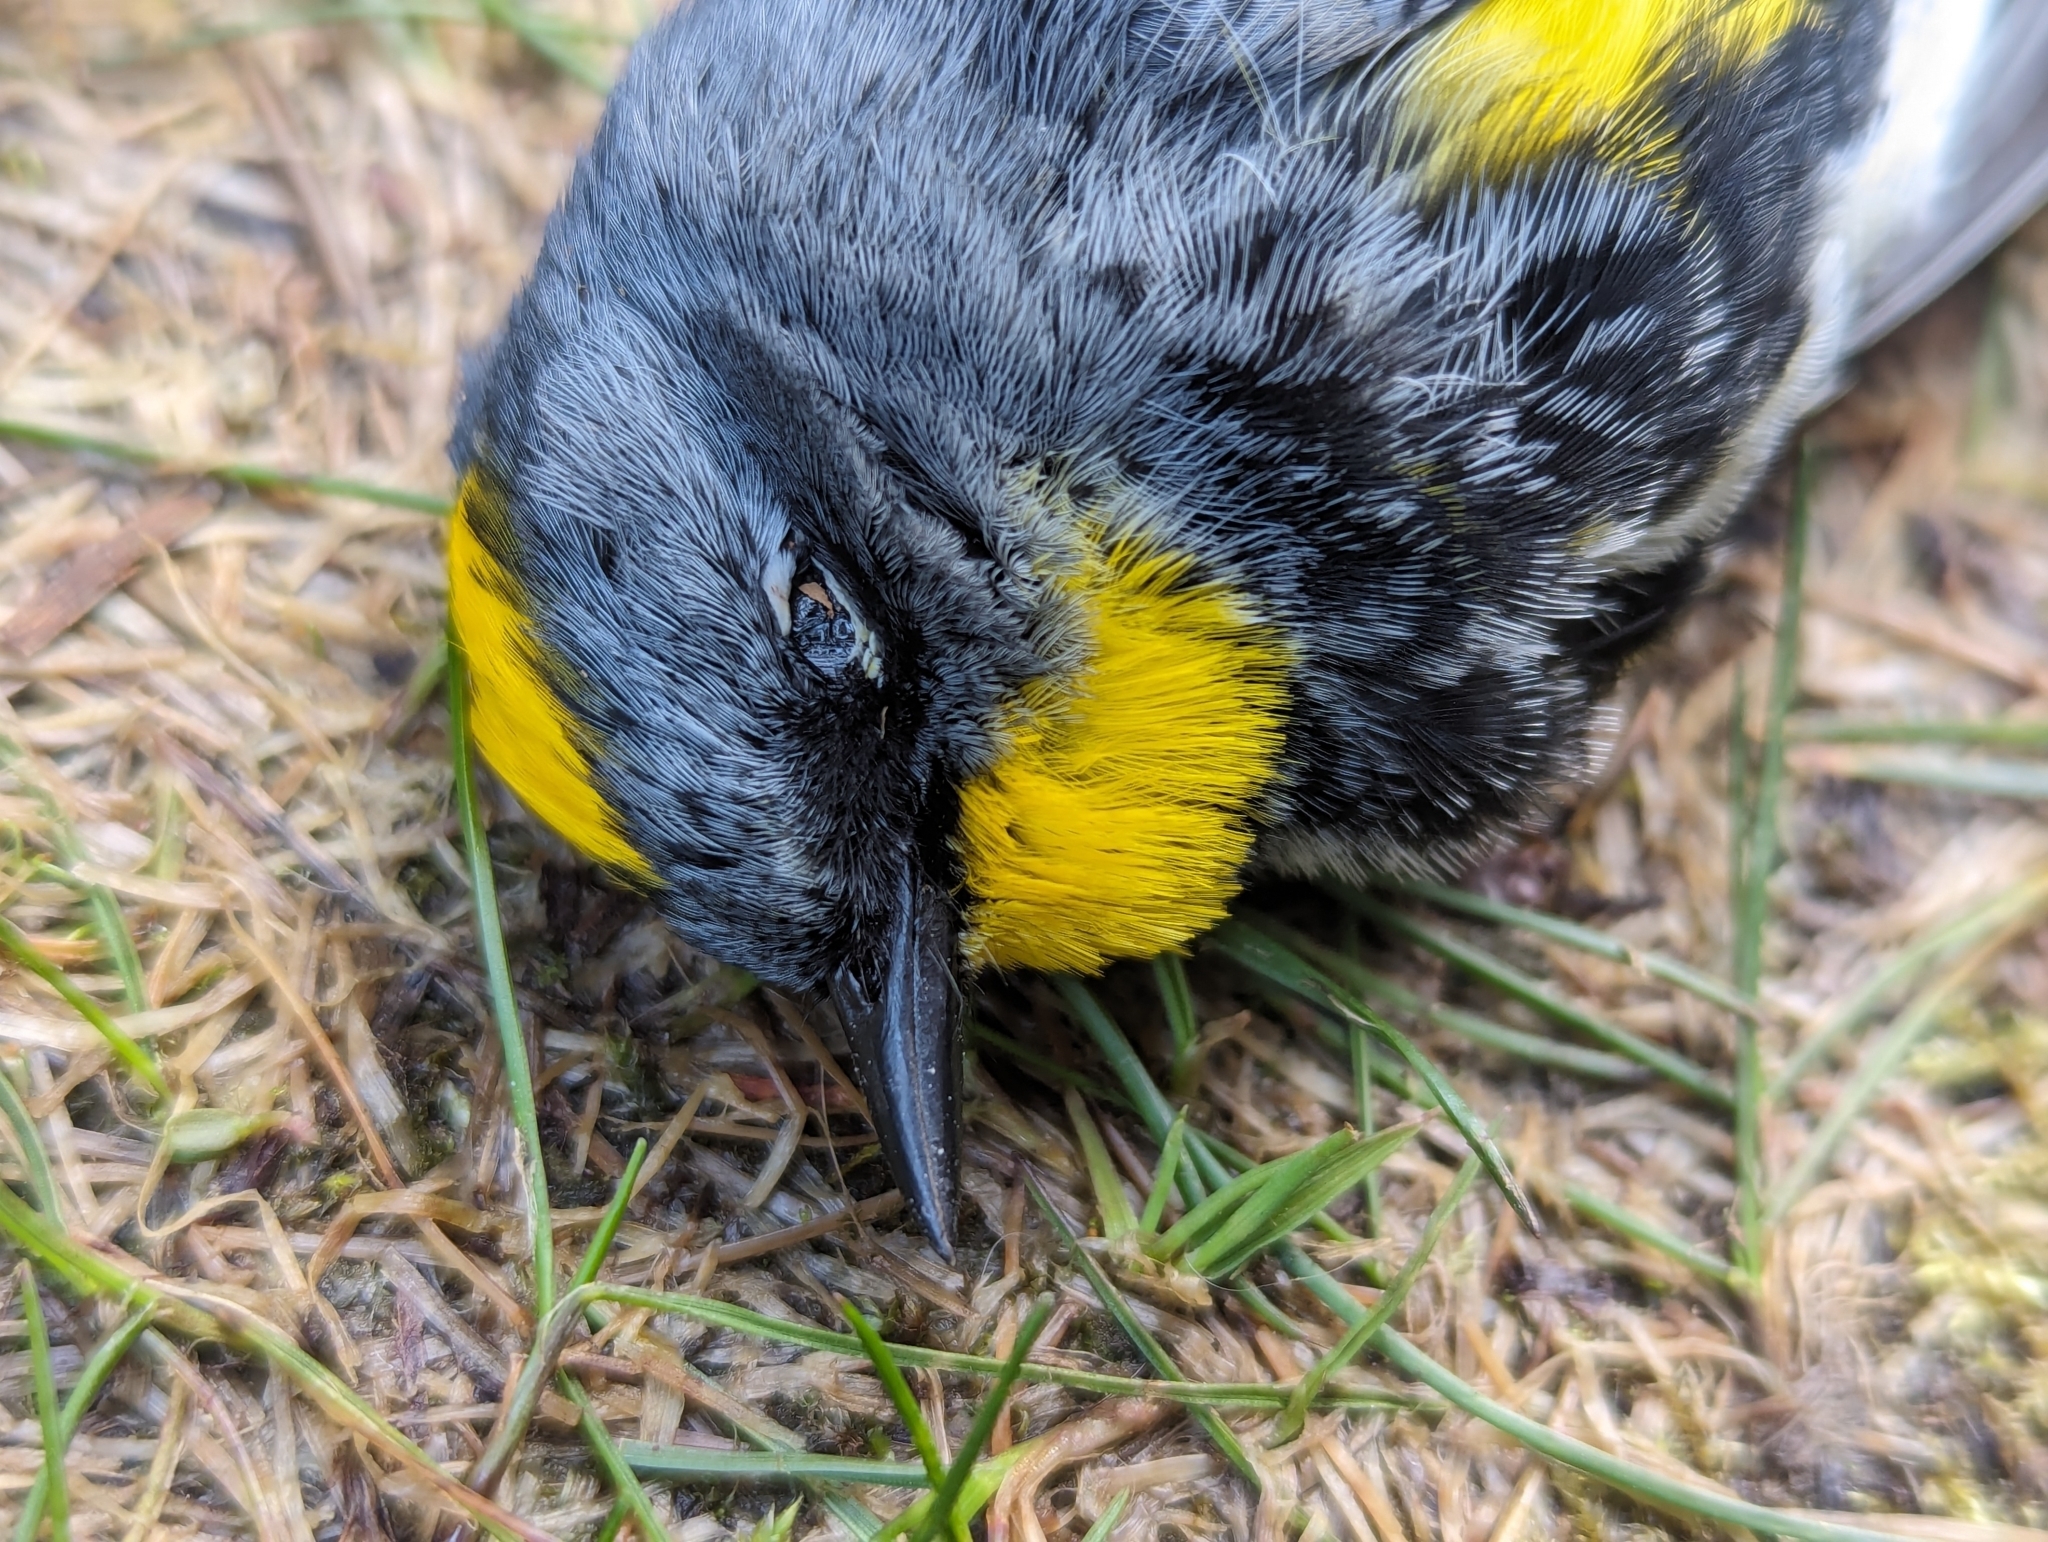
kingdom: Animalia
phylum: Chordata
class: Aves
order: Passeriformes
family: Parulidae
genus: Setophaga
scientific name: Setophaga auduboni
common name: Audubon's warbler
